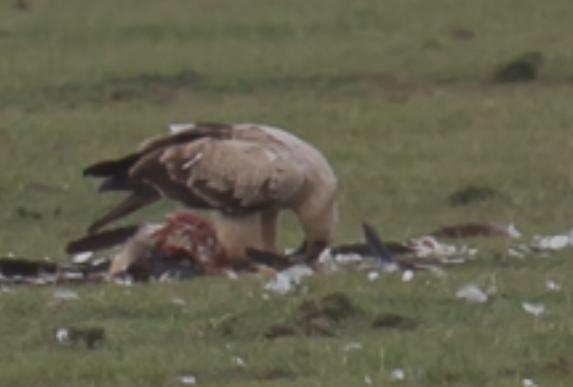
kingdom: Animalia
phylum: Chordata
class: Aves
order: Accipitriformes
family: Accipitridae
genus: Aquila
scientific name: Aquila rapax
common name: Tawny eagle
